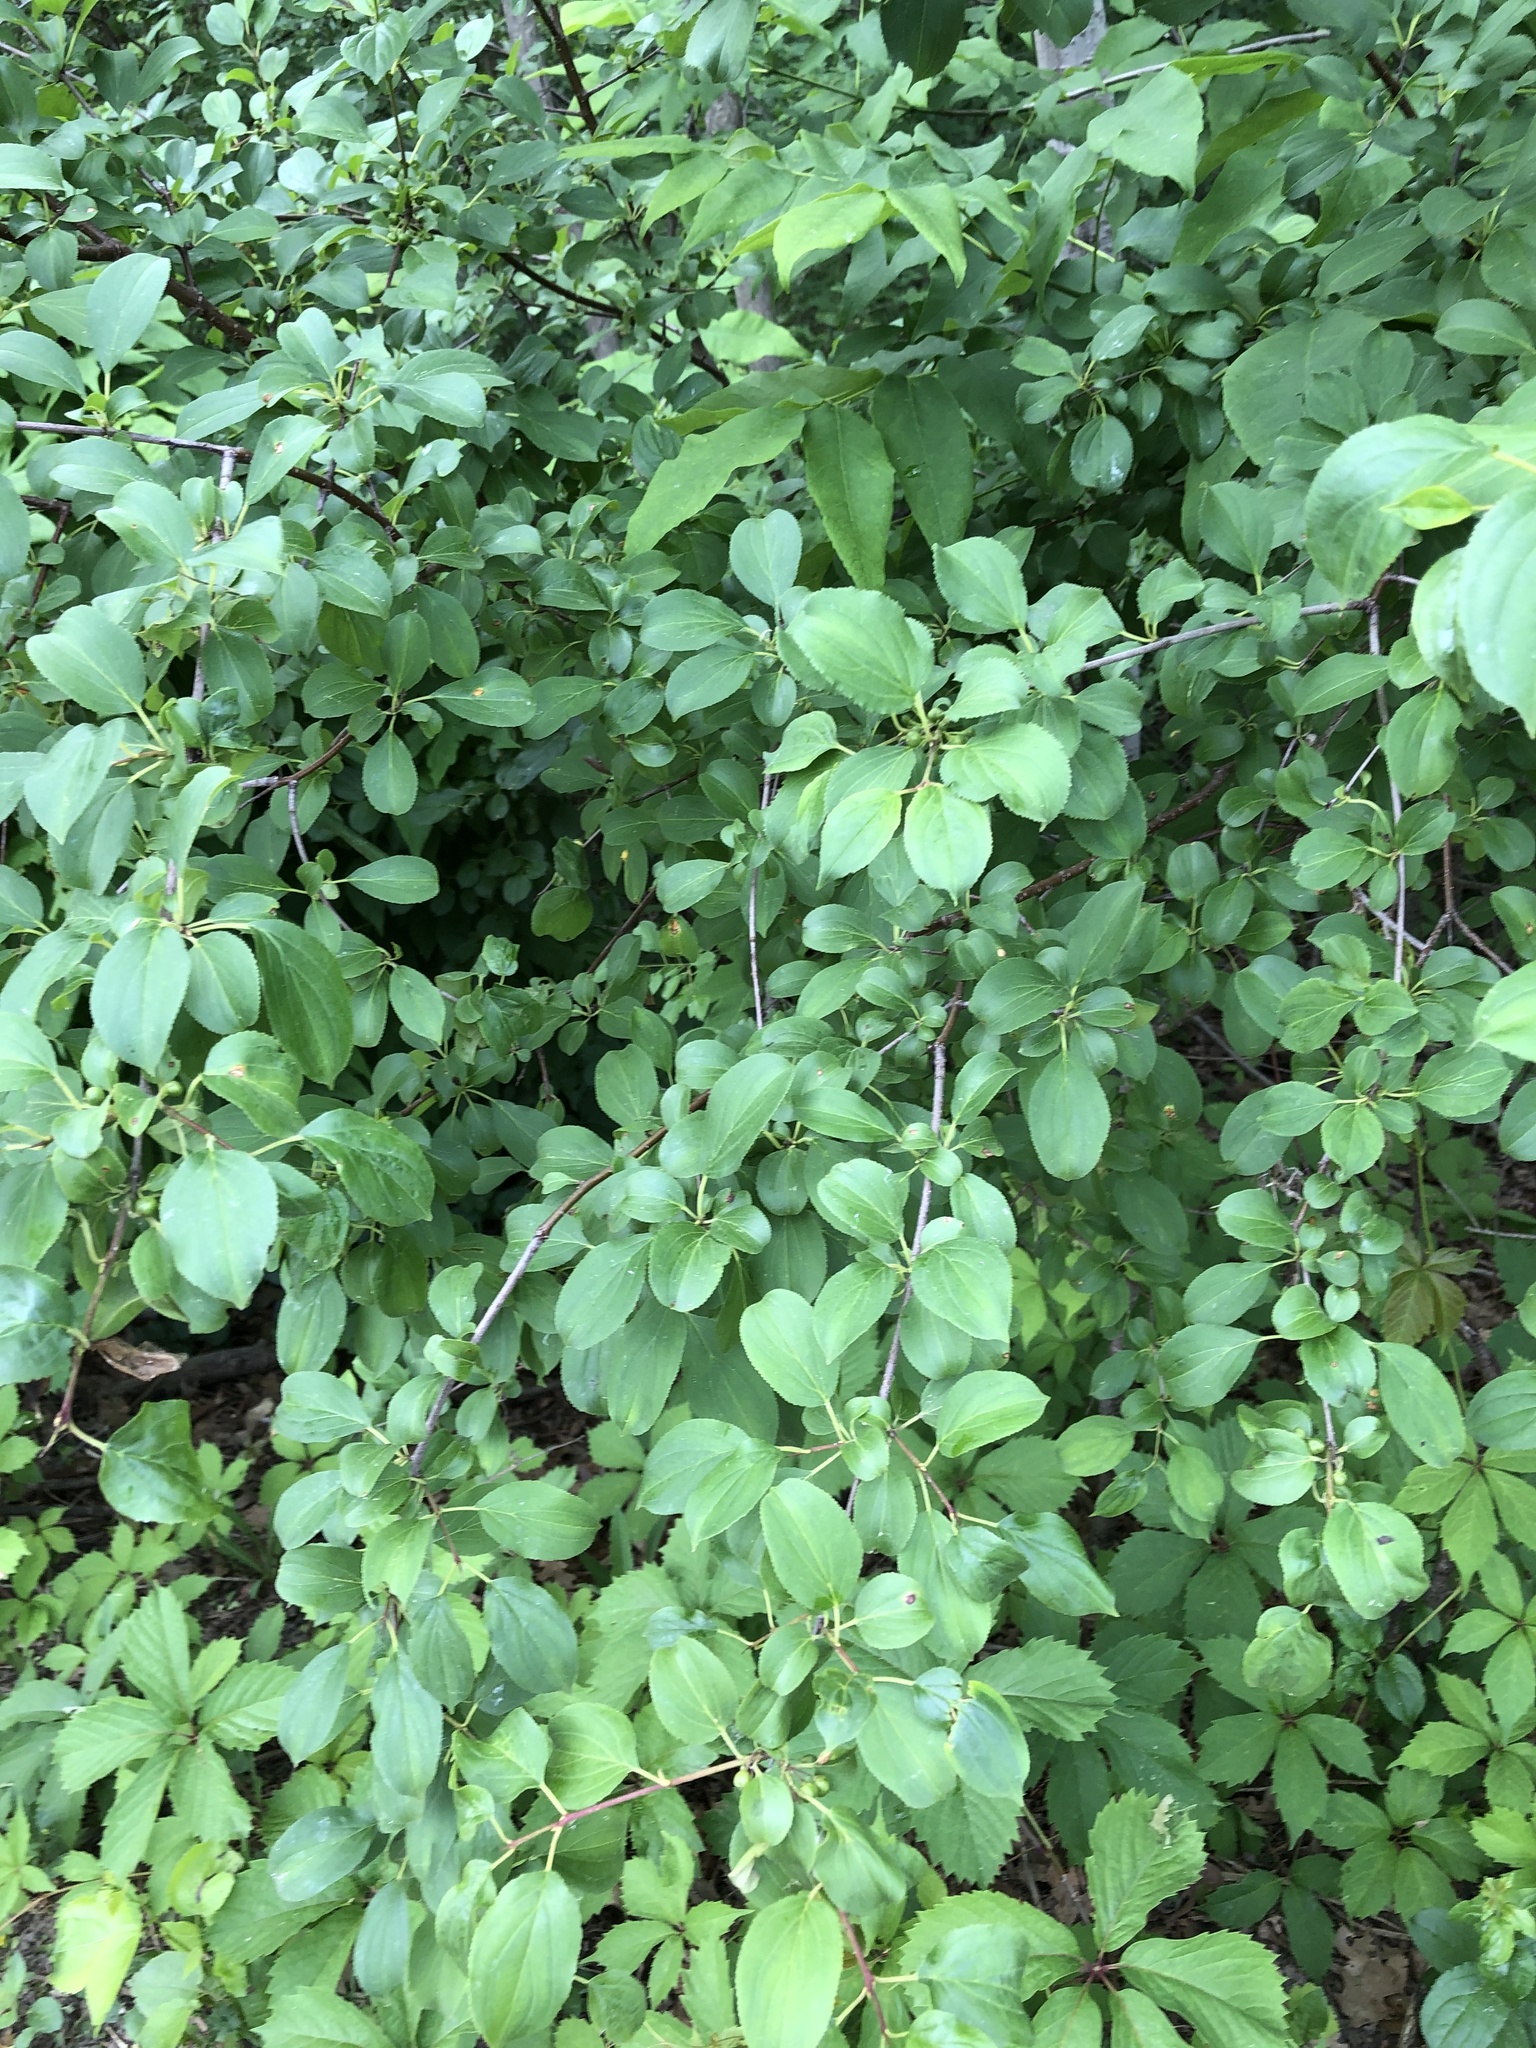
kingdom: Plantae
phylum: Tracheophyta
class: Magnoliopsida
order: Rosales
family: Rhamnaceae
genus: Rhamnus
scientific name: Rhamnus cathartica
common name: Common buckthorn
